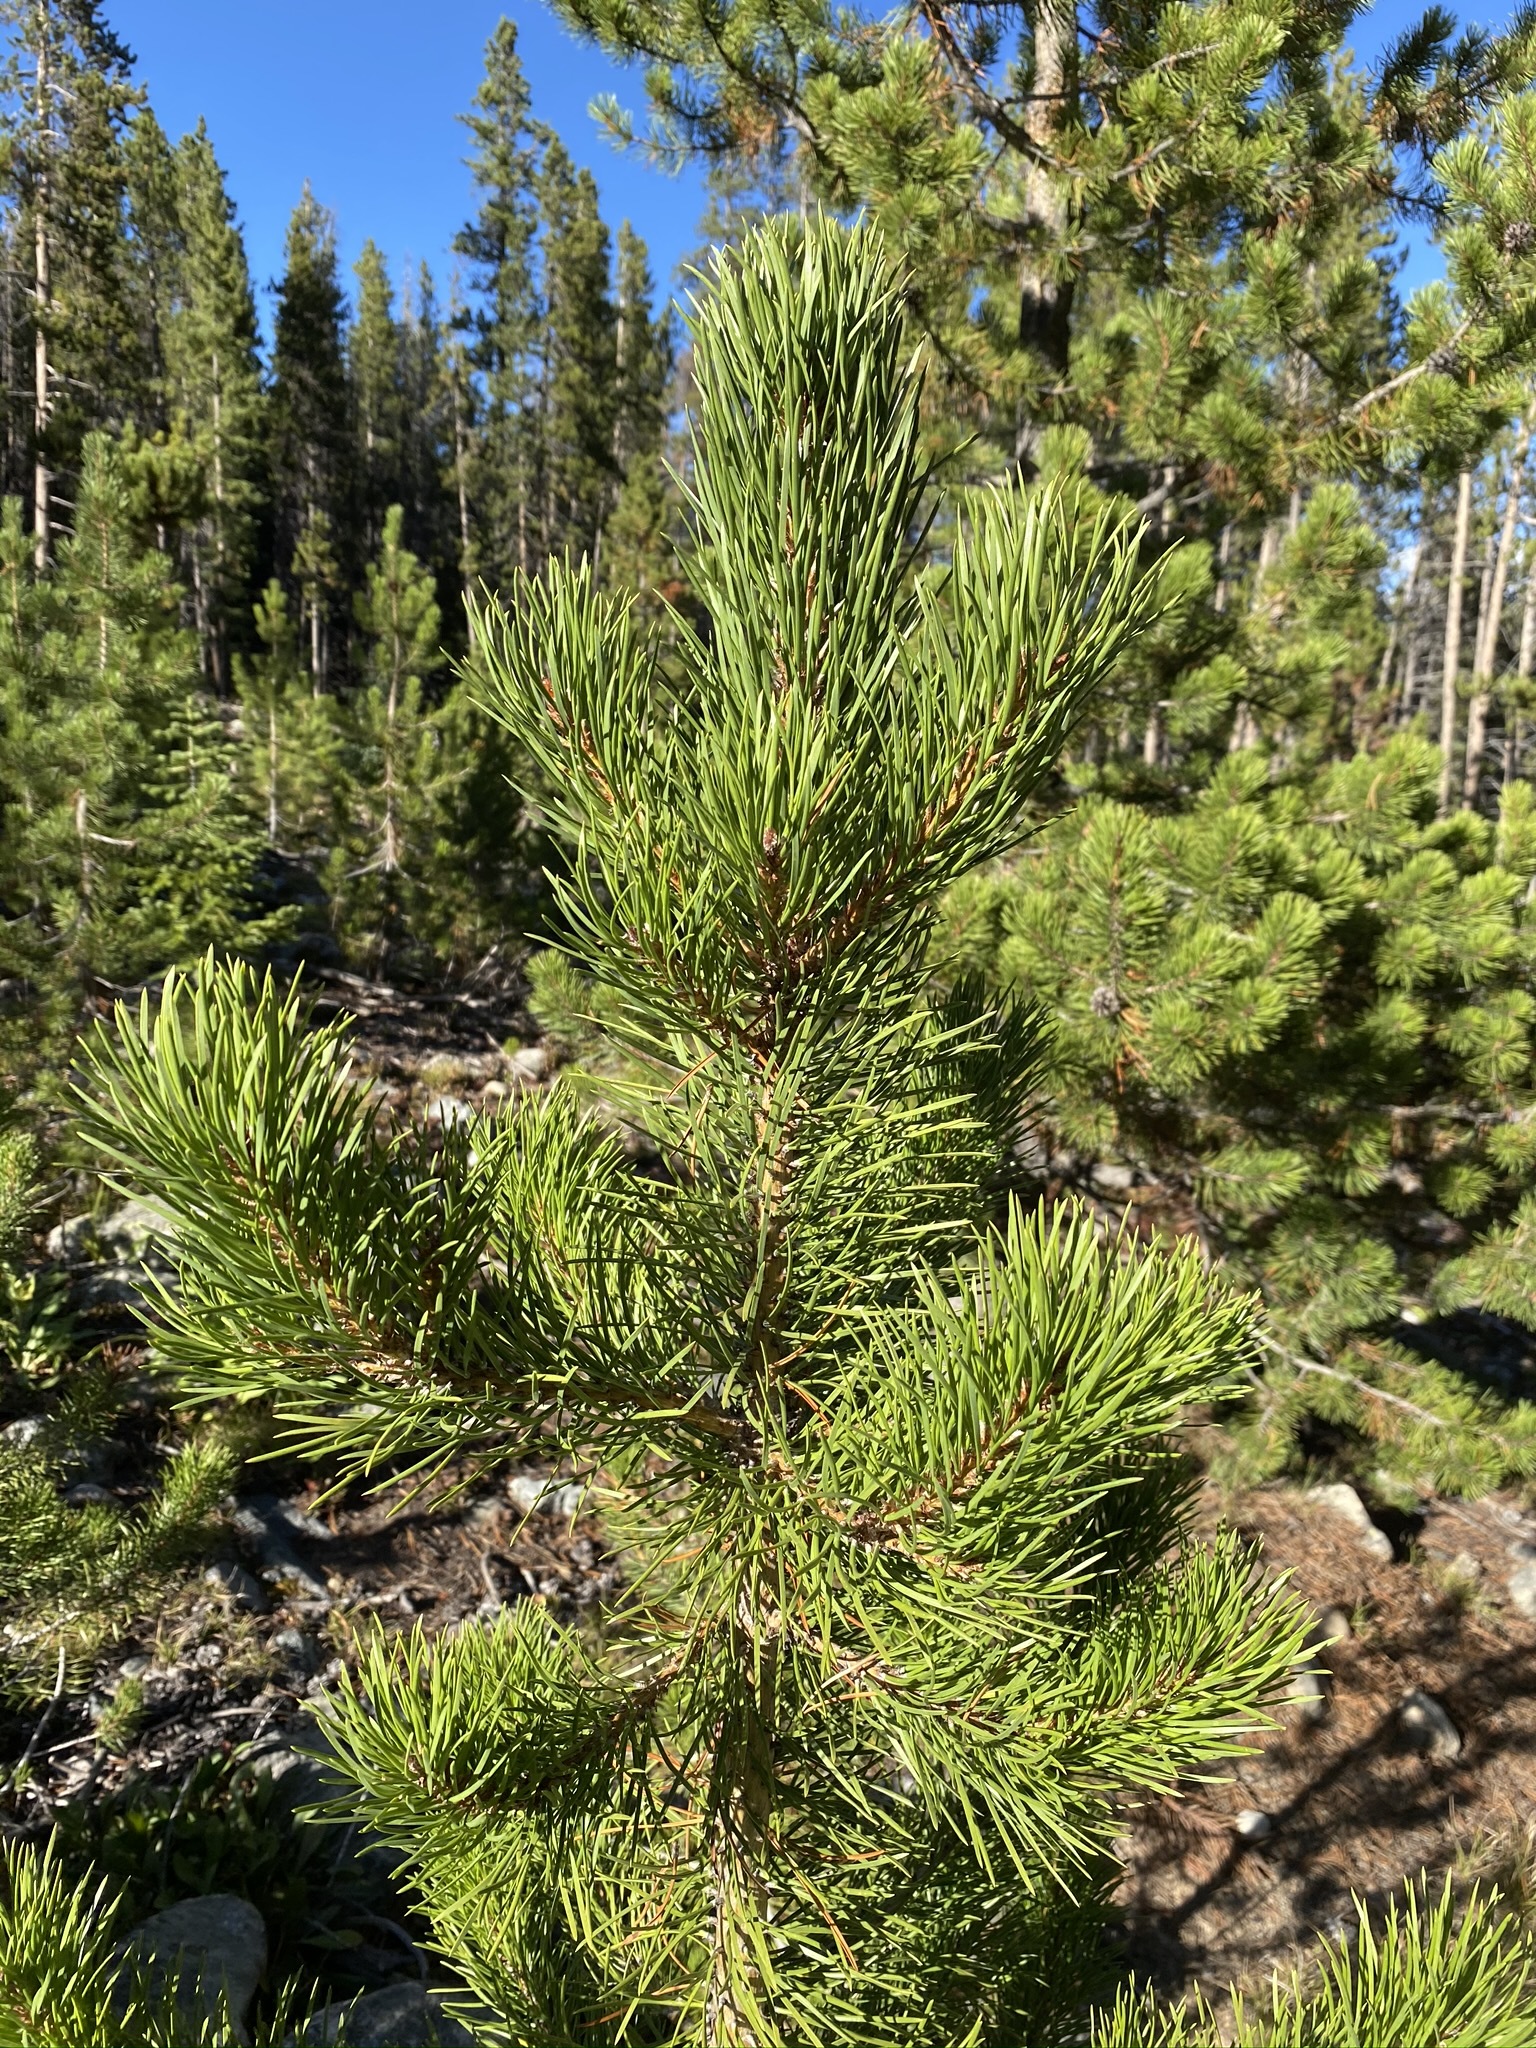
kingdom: Plantae
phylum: Tracheophyta
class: Pinopsida
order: Pinales
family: Pinaceae
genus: Pinus
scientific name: Pinus contorta
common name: Lodgepole pine
